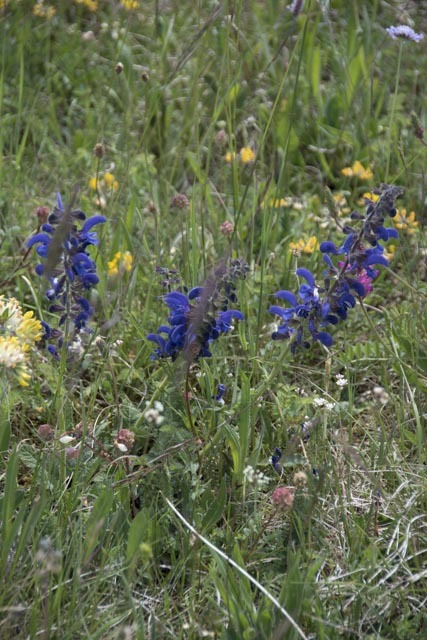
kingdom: Plantae
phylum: Tracheophyta
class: Magnoliopsida
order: Lamiales
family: Lamiaceae
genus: Salvia
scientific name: Salvia pratensis
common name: Meadow sage
